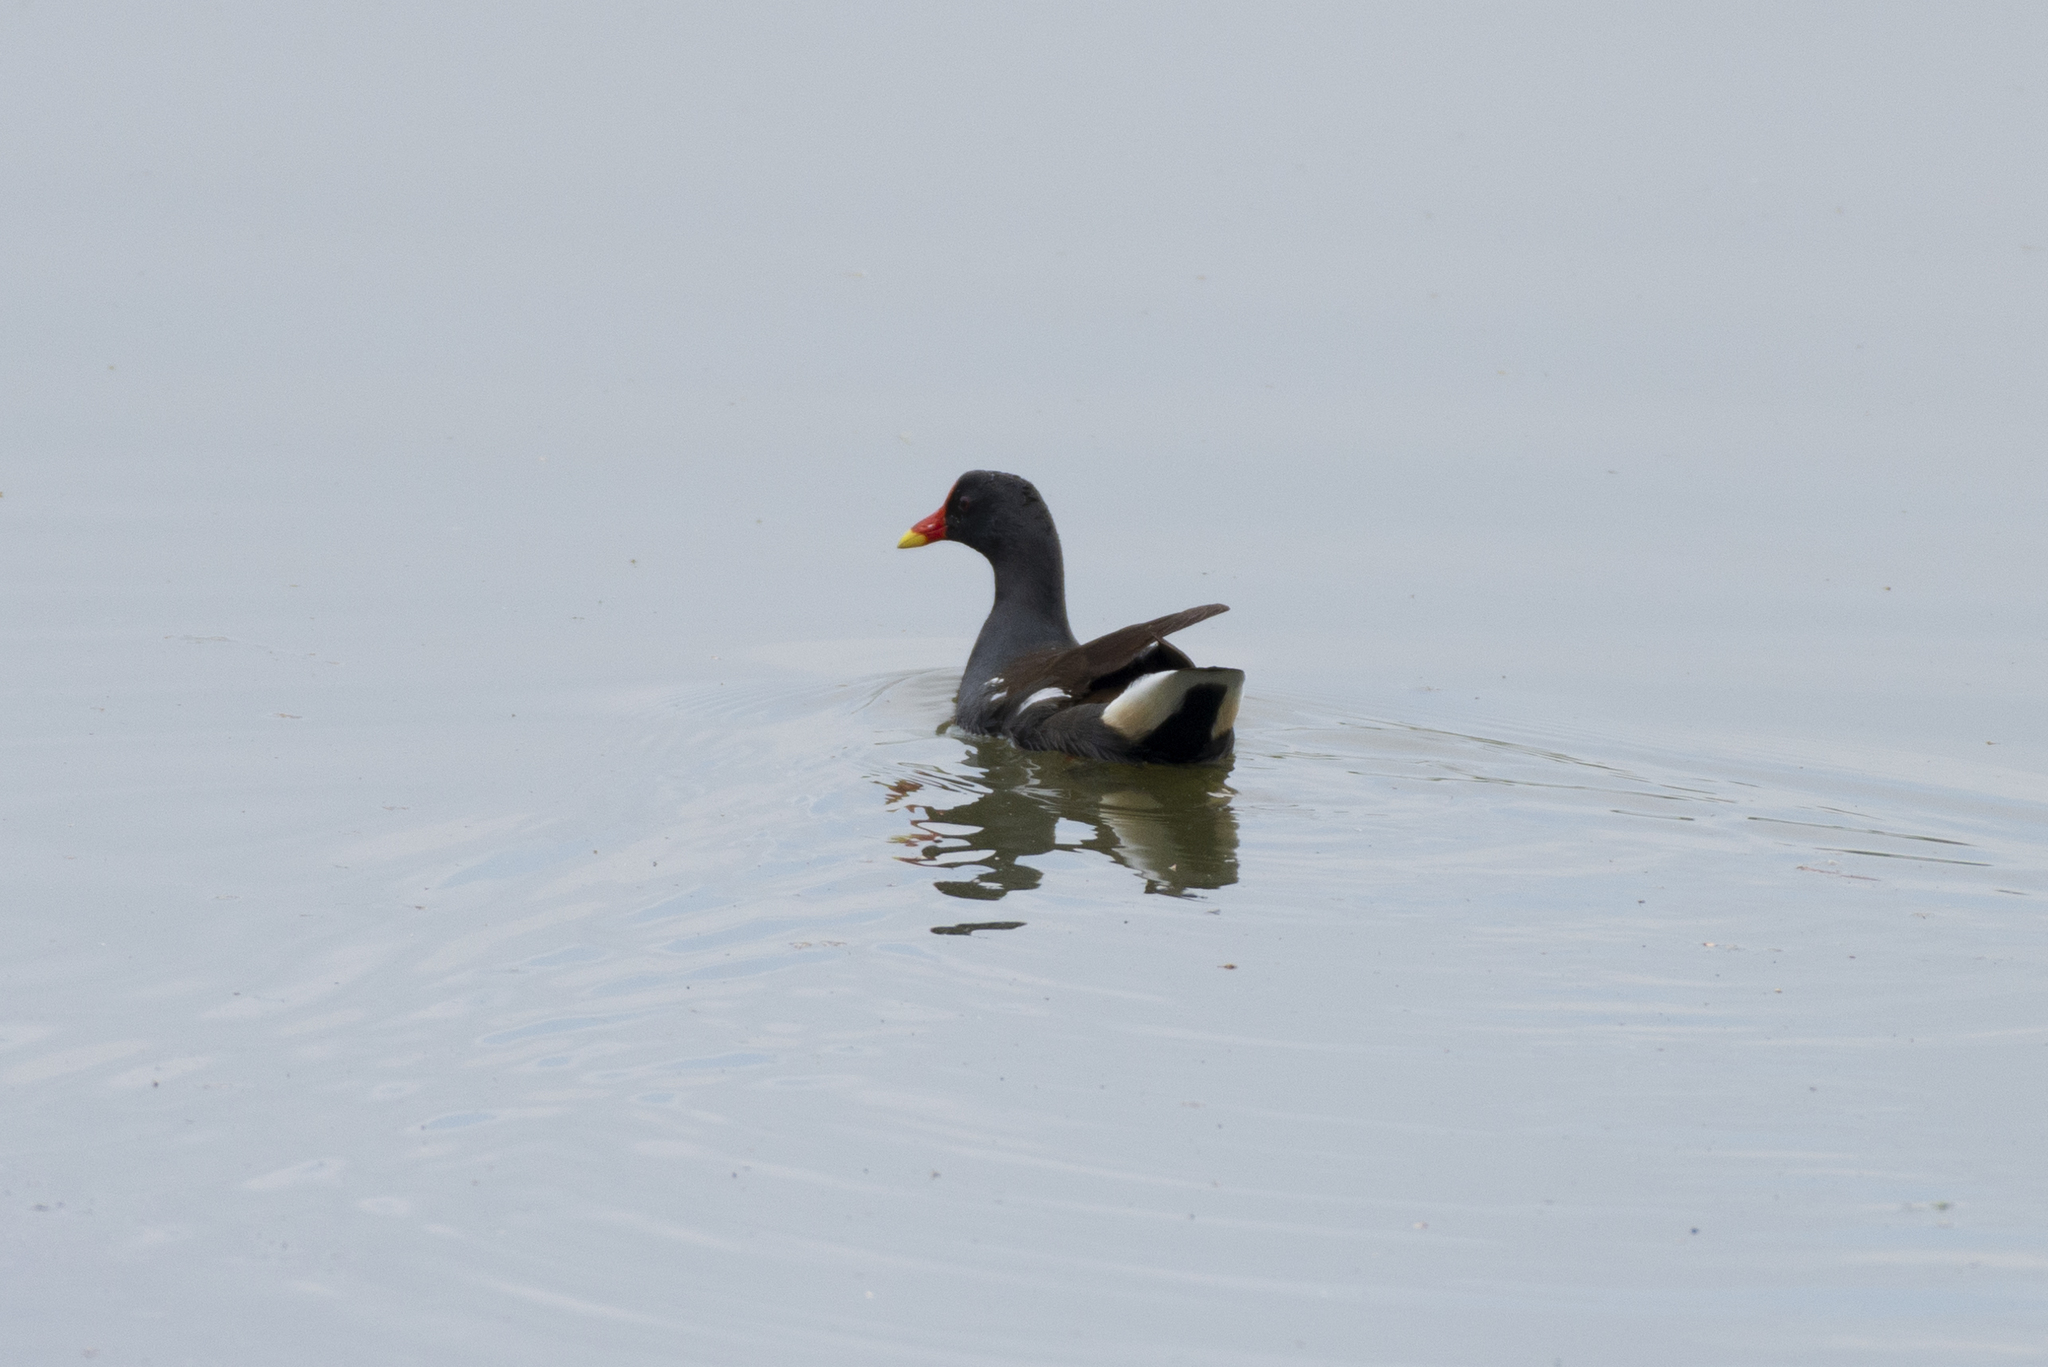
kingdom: Animalia
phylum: Chordata
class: Aves
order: Gruiformes
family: Rallidae
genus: Gallinula
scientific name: Gallinula chloropus
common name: Common moorhen
